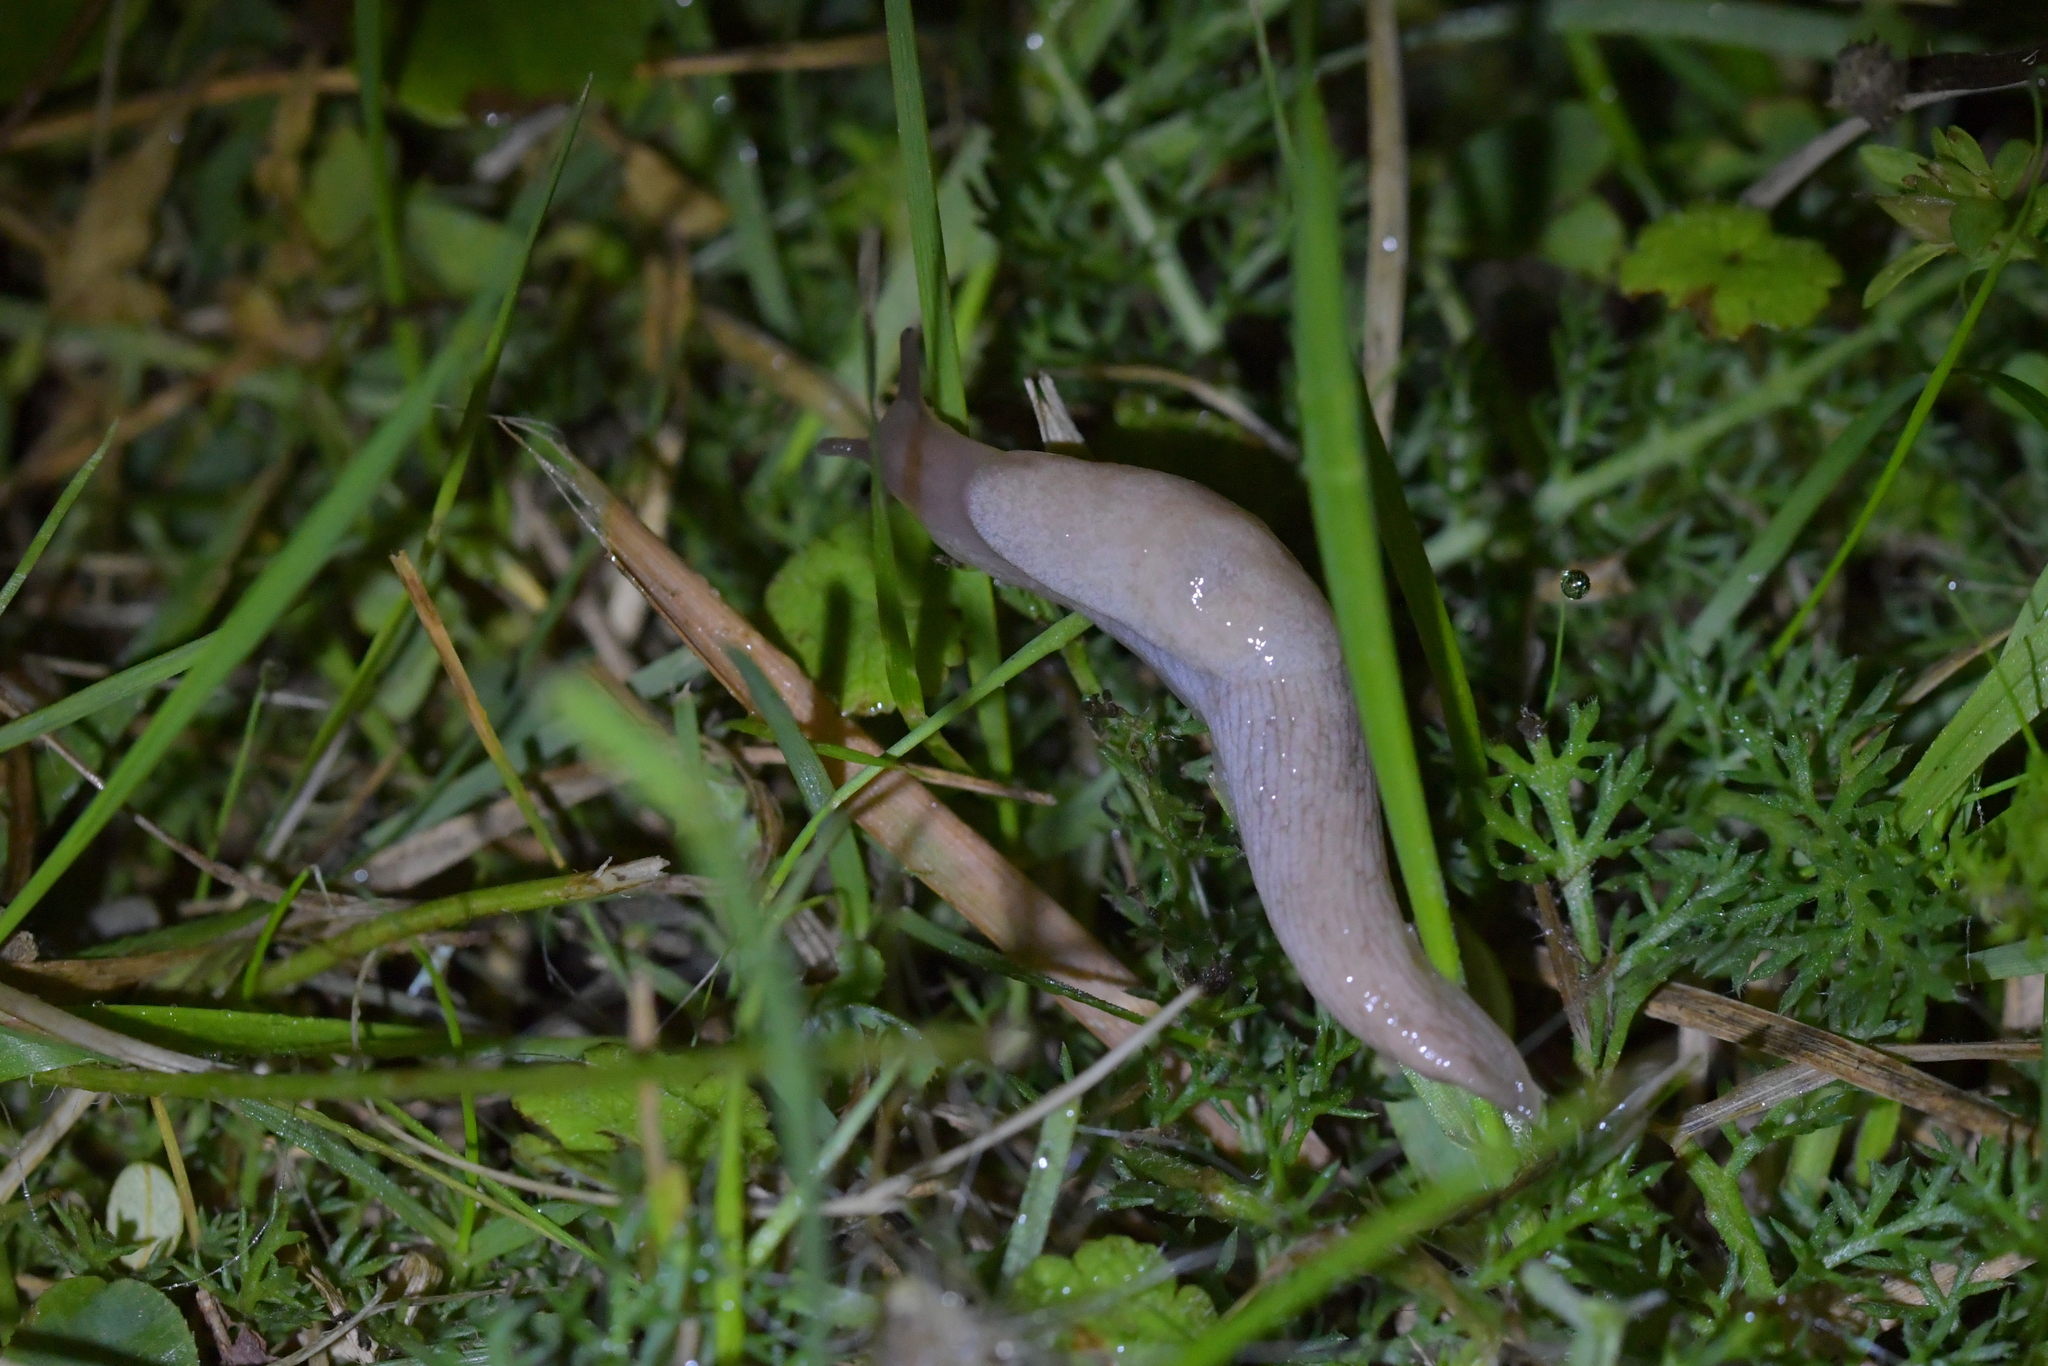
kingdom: Animalia
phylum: Mollusca
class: Gastropoda
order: Stylommatophora
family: Agriolimacidae
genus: Deroceras
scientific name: Deroceras reticulatum
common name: Gray field slug
